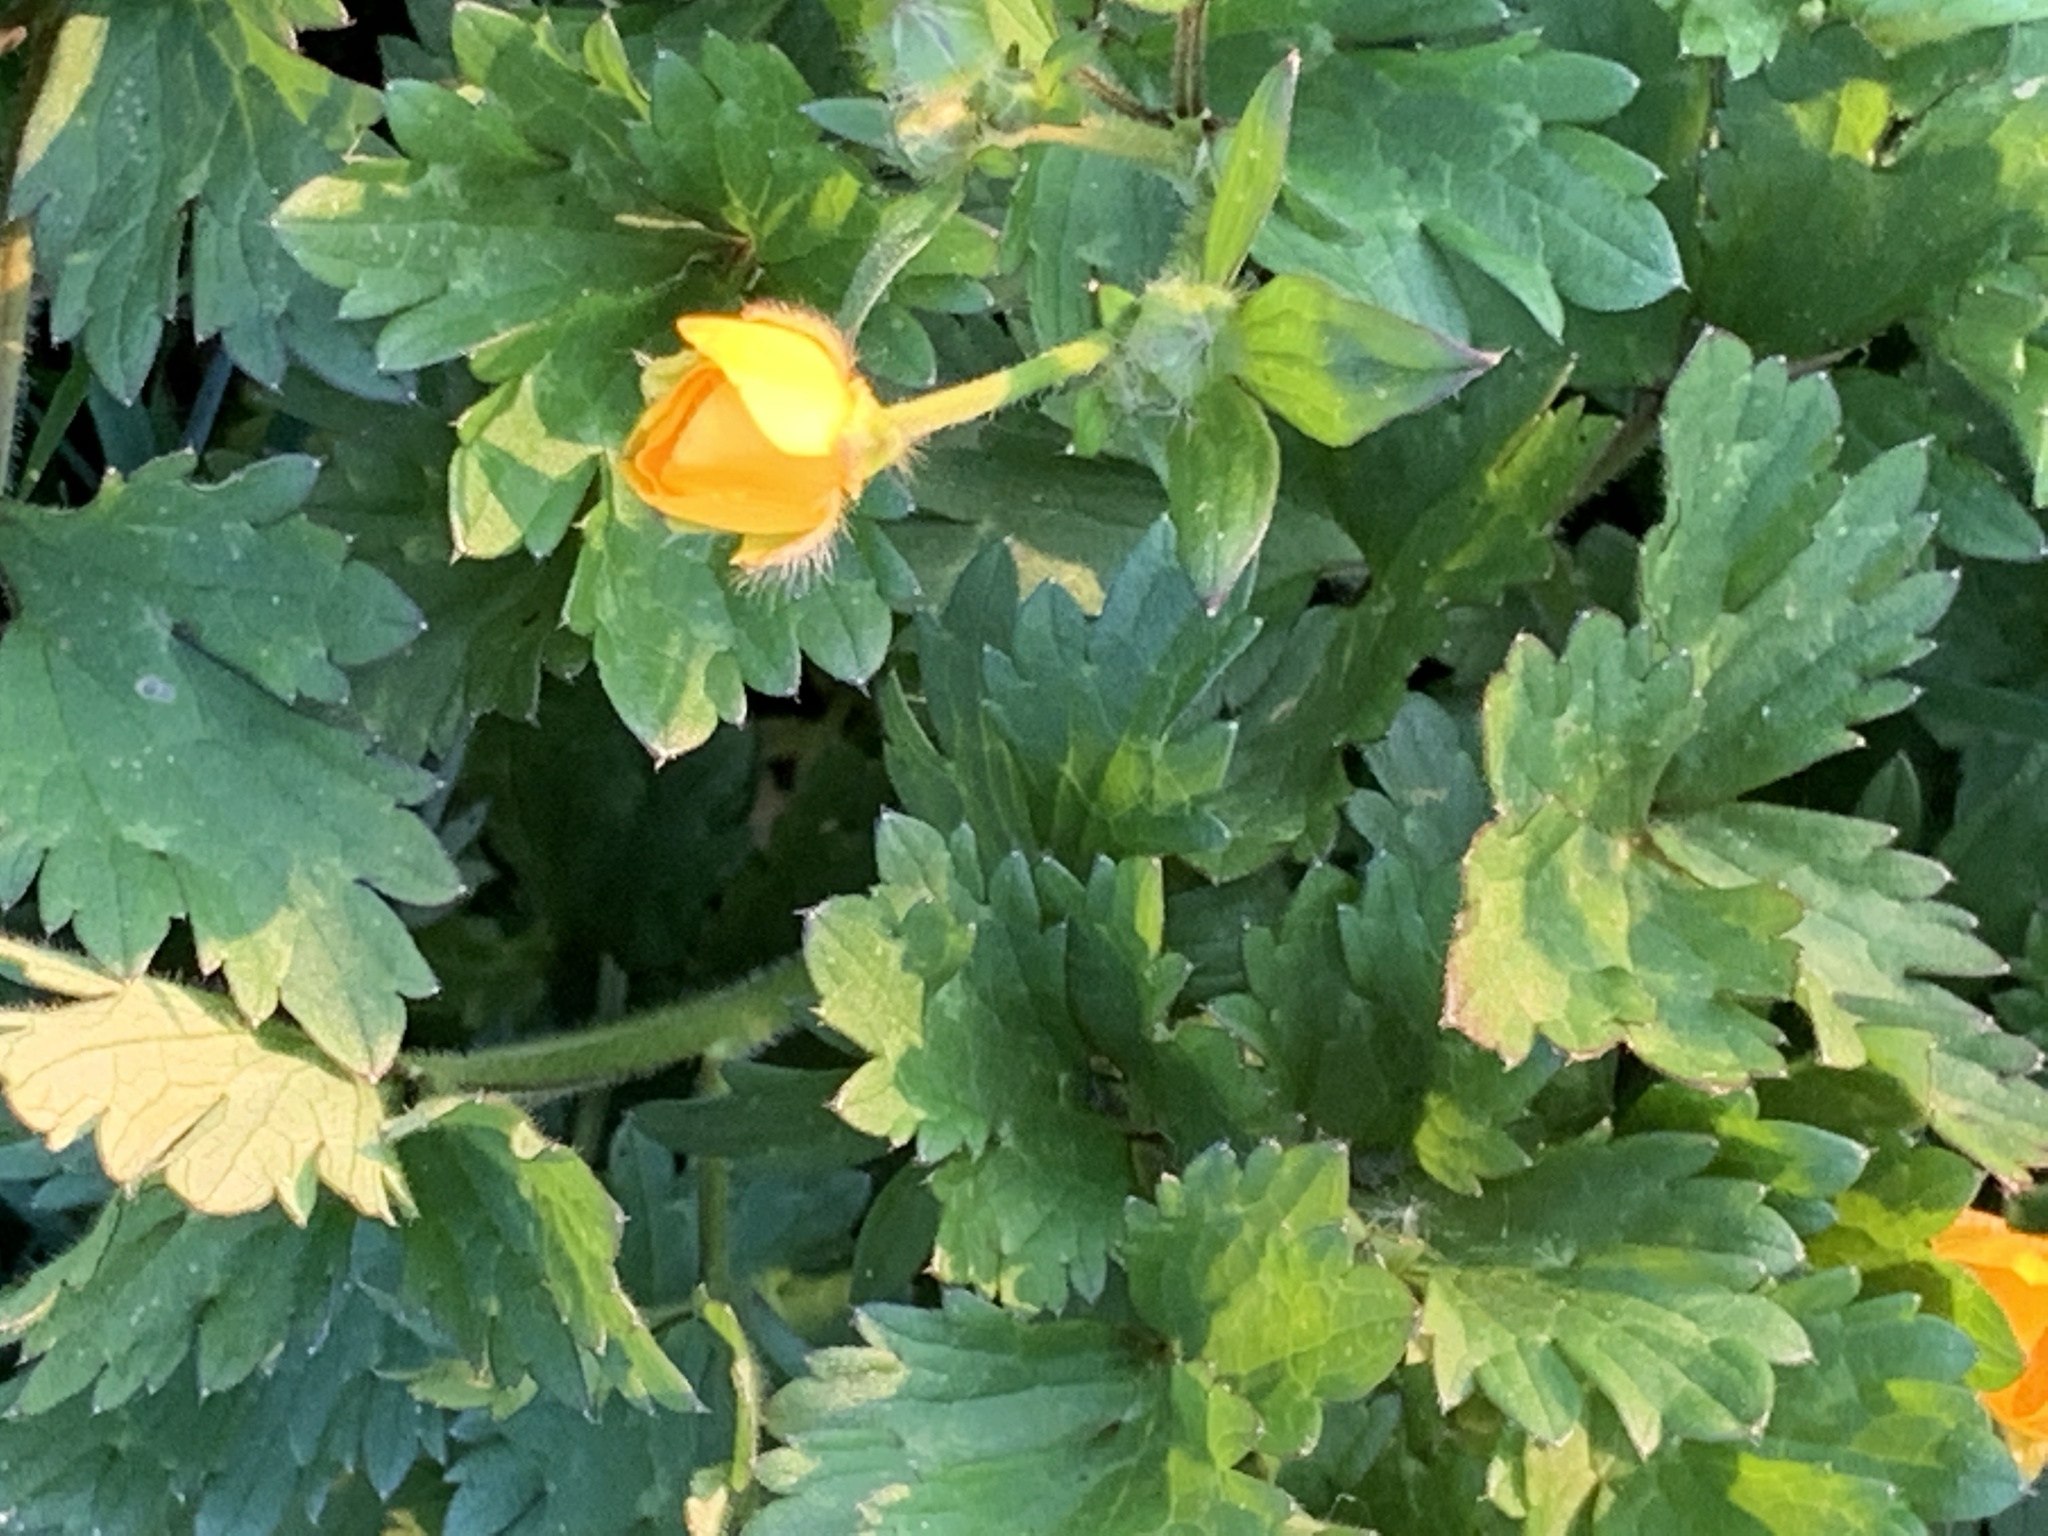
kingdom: Plantae
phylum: Tracheophyta
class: Magnoliopsida
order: Ranunculales
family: Ranunculaceae
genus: Ranunculus
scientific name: Ranunculus repens
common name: Creeping buttercup
